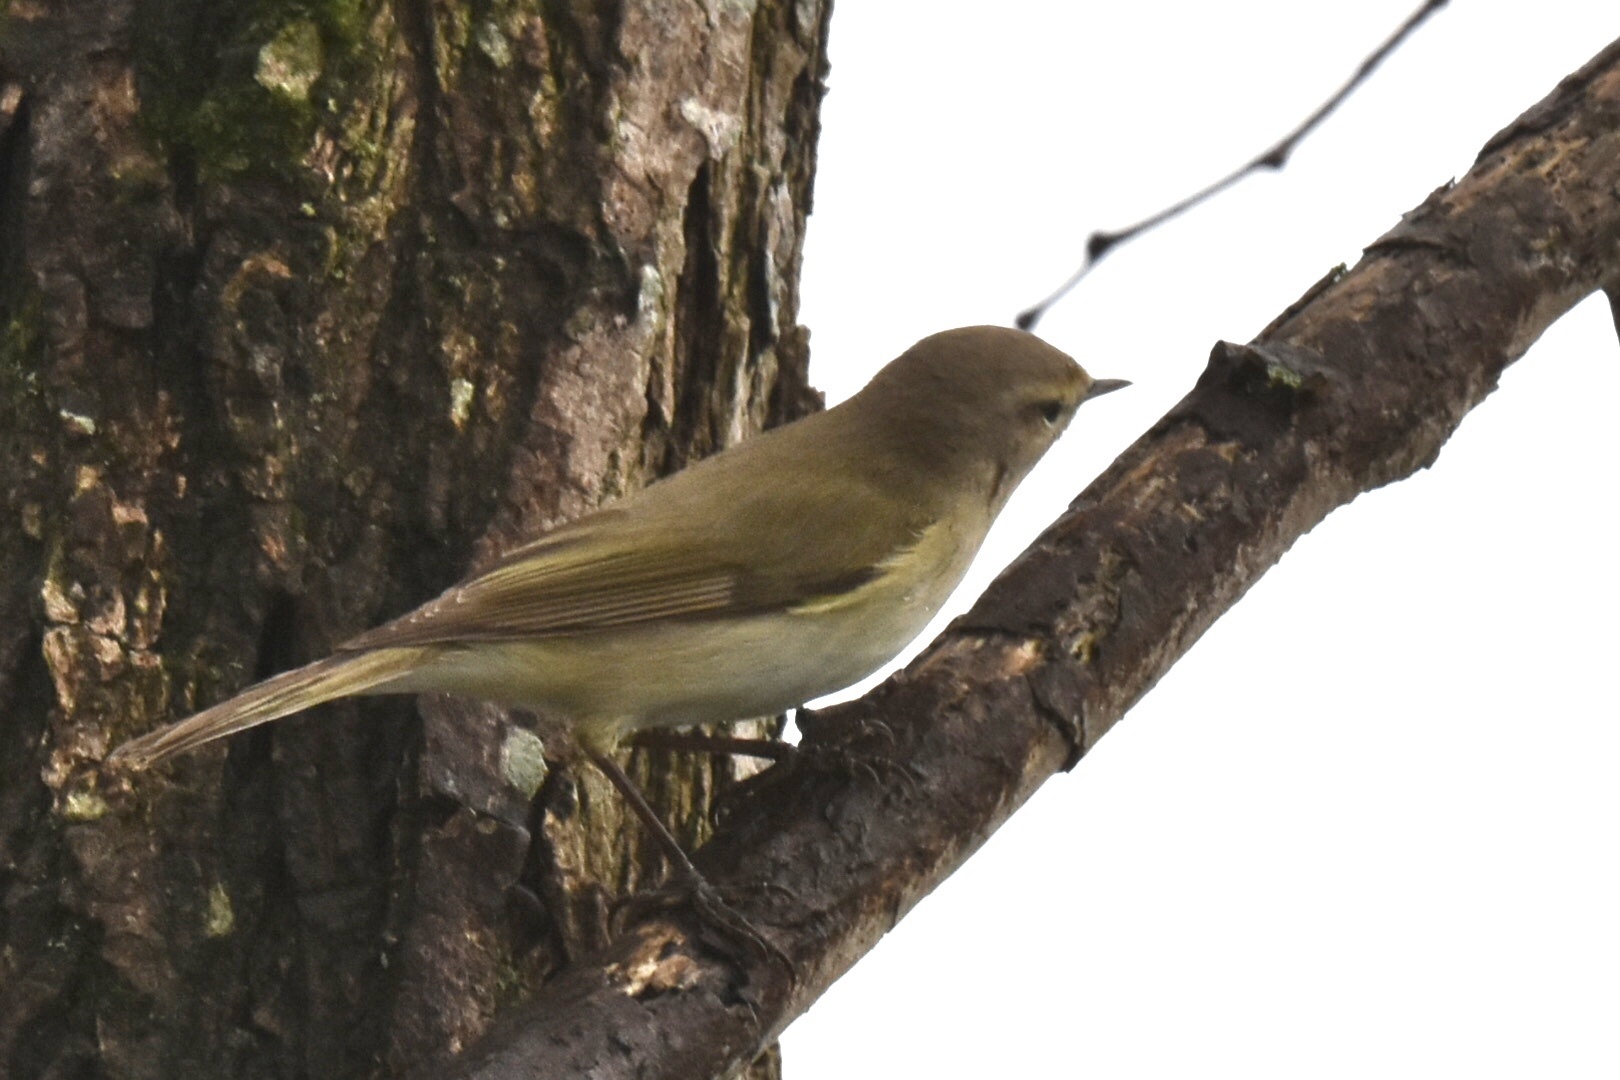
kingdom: Animalia
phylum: Chordata
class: Aves
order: Passeriformes
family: Phylloscopidae
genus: Phylloscopus
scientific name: Phylloscopus collybita
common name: Common chiffchaff
